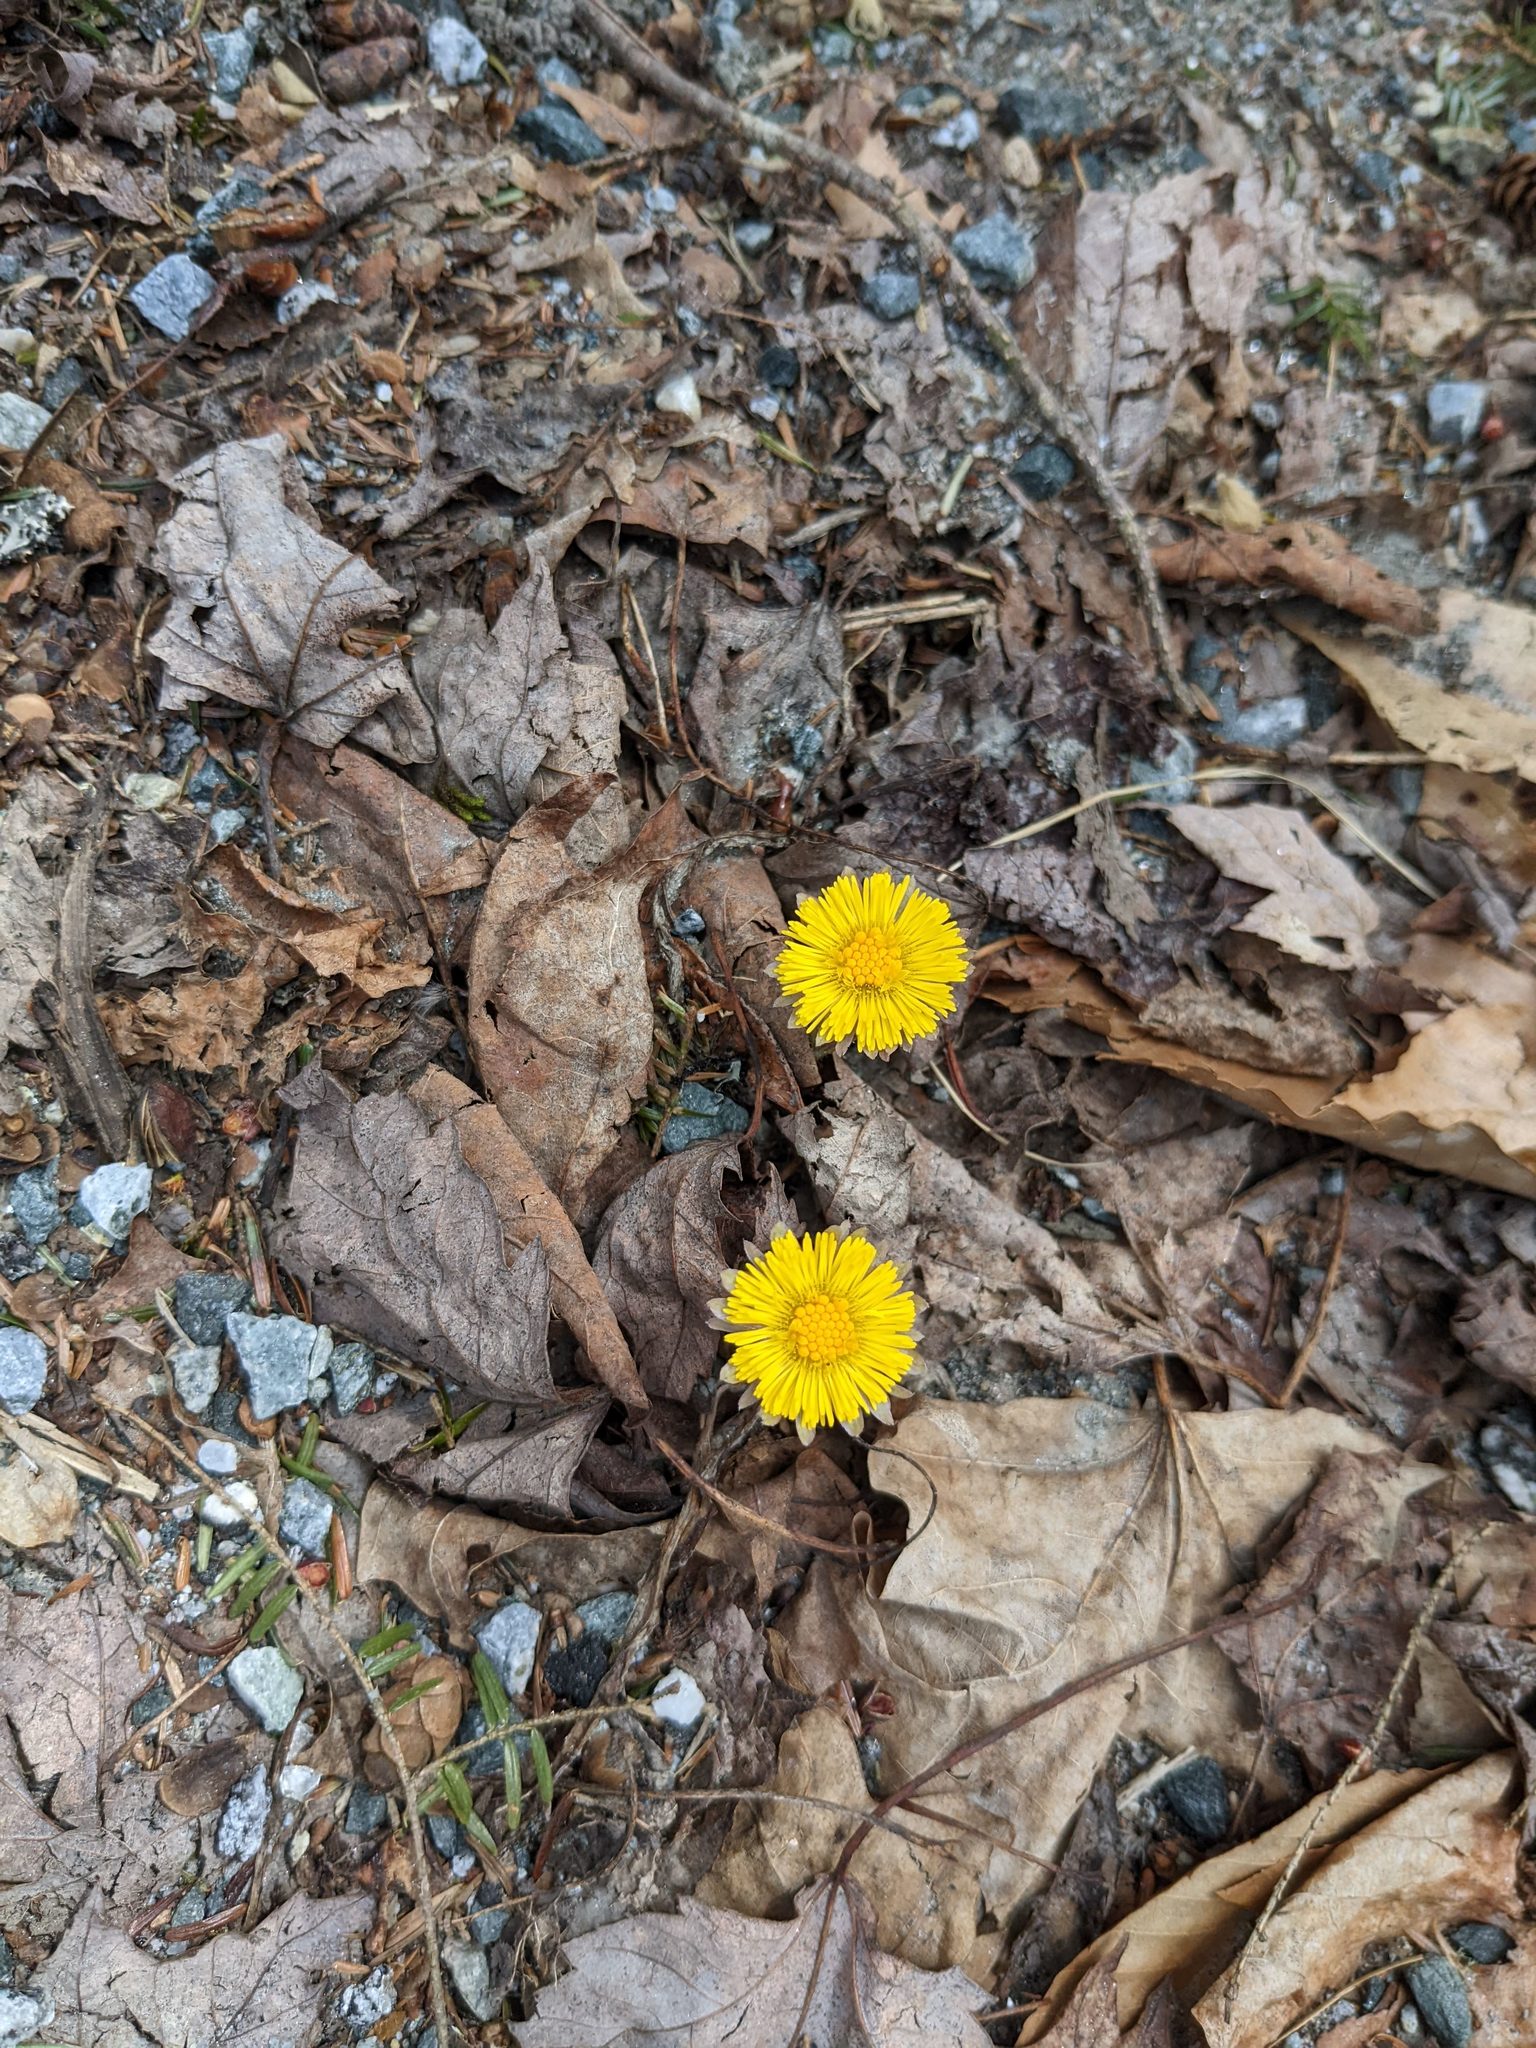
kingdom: Plantae
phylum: Tracheophyta
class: Magnoliopsida
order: Asterales
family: Asteraceae
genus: Tussilago
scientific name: Tussilago farfara
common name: Coltsfoot
